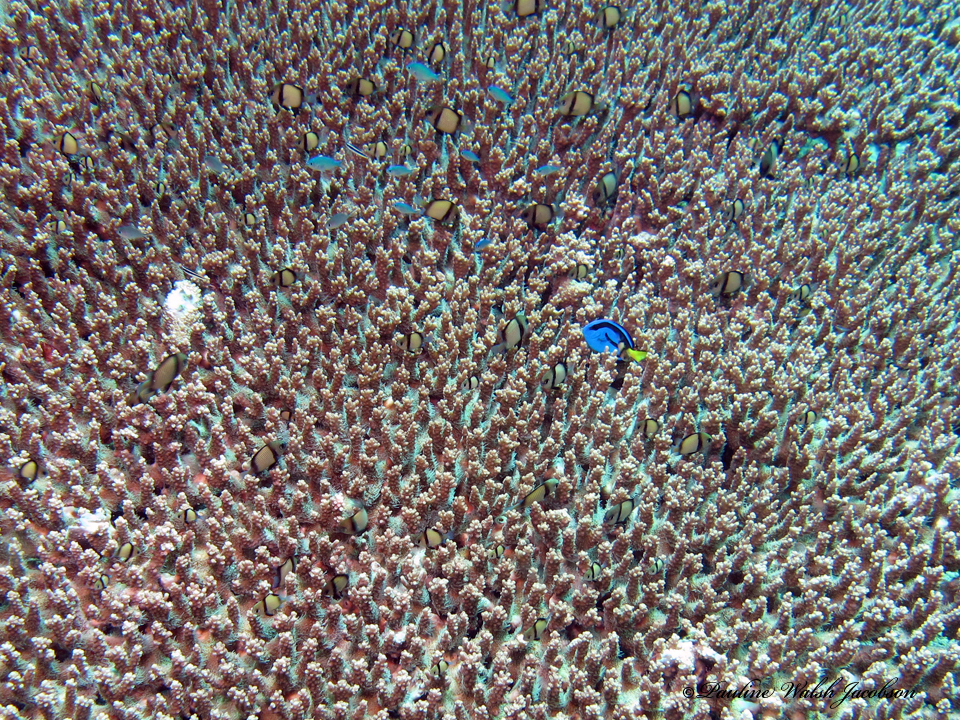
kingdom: Animalia
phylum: Chordata
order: Perciformes
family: Acanthuridae
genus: Paracanthurus
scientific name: Paracanthurus hepatus
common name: Palette surgeonfish
